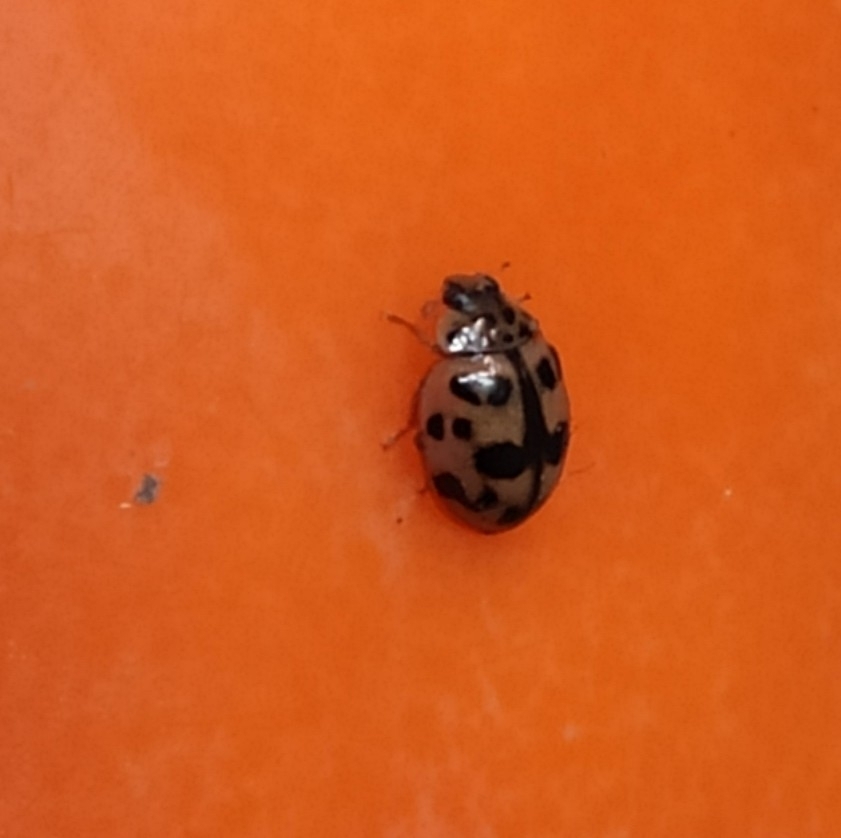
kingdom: Animalia
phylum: Arthropoda
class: Insecta
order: Coleoptera
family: Coccinellidae
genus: Oenopia
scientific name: Oenopia conglobata
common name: Ladybird beetle
